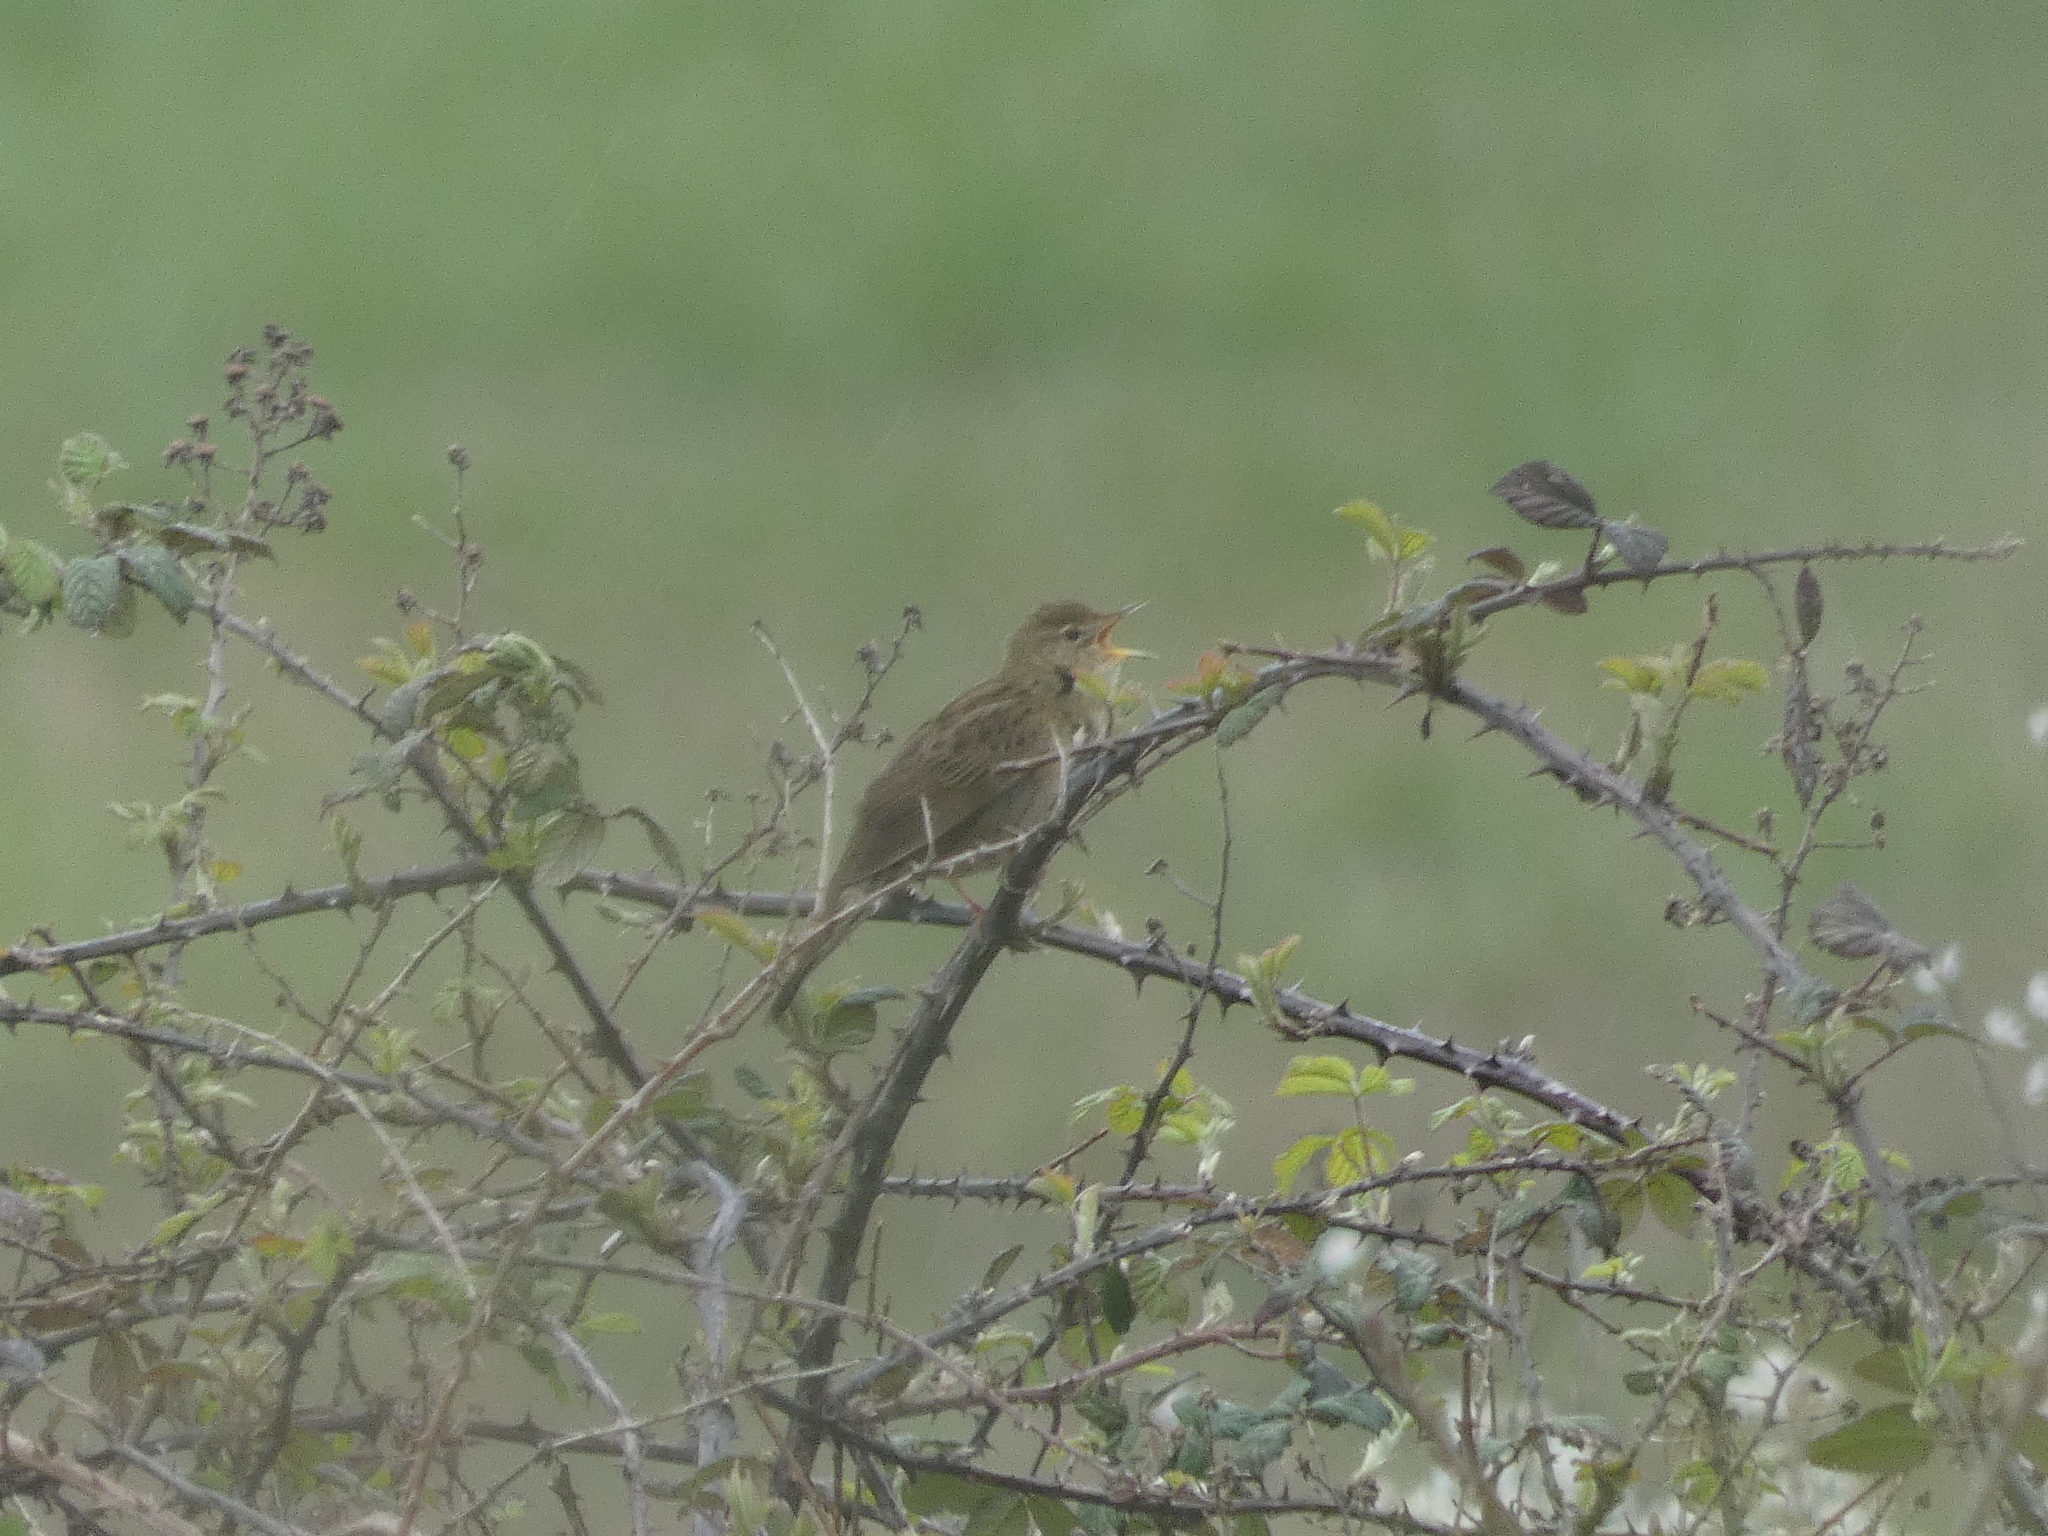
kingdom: Animalia
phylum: Chordata
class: Aves
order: Passeriformes
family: Locustellidae
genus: Locustella
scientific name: Locustella naevia
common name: Common grasshopper warbler
